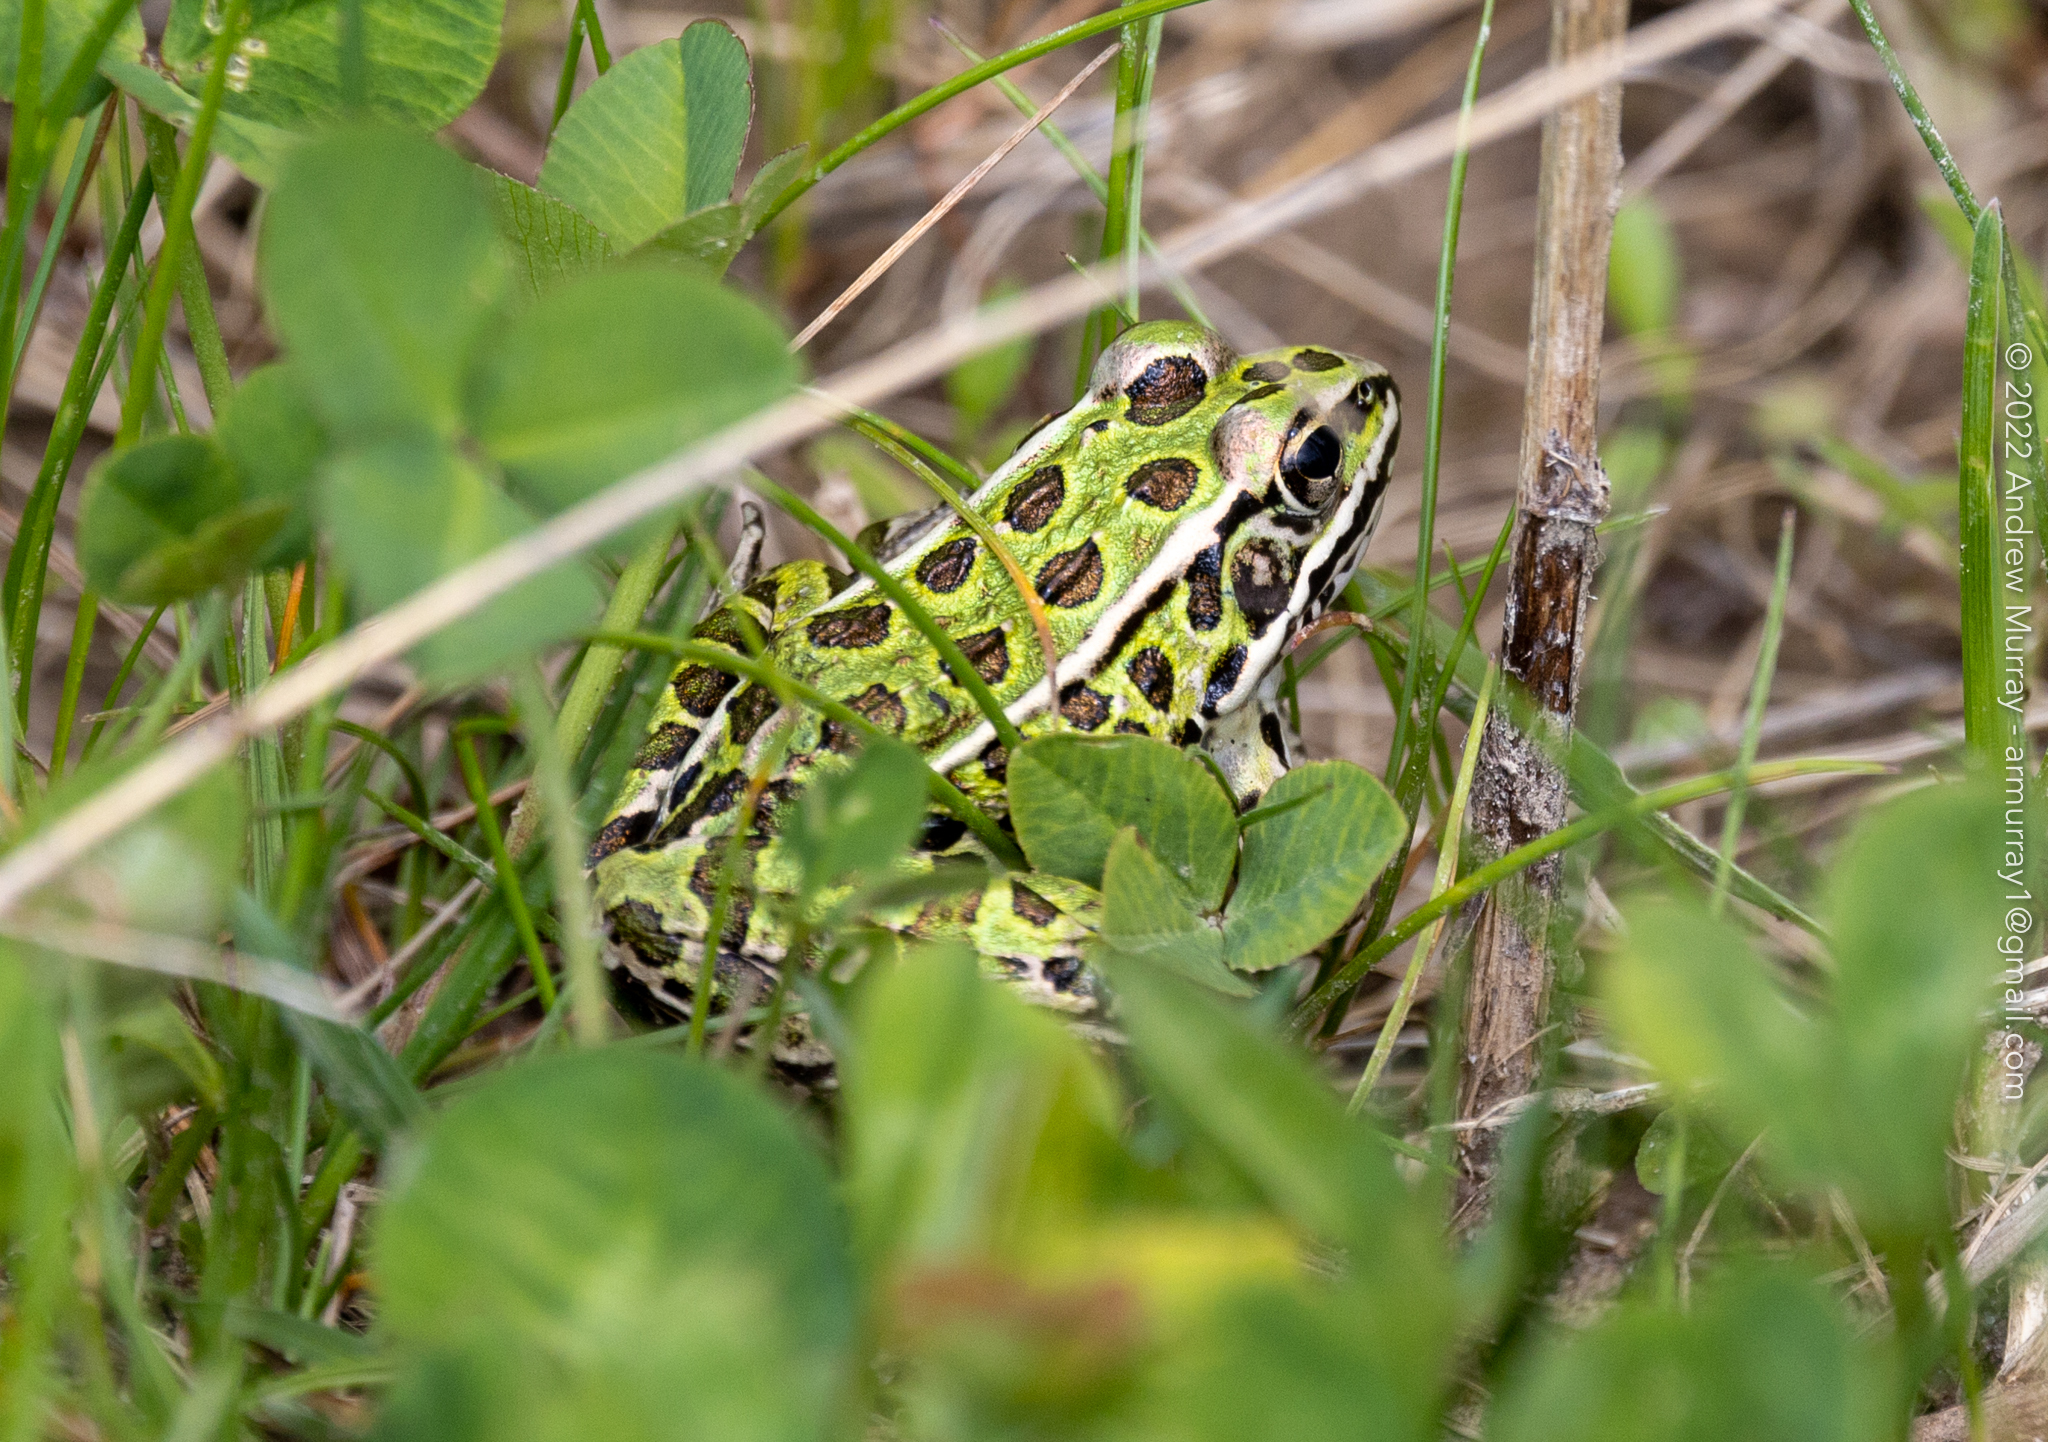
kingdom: Animalia
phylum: Chordata
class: Amphibia
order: Anura
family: Ranidae
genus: Lithobates
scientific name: Lithobates pipiens
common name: Northern leopard frog
